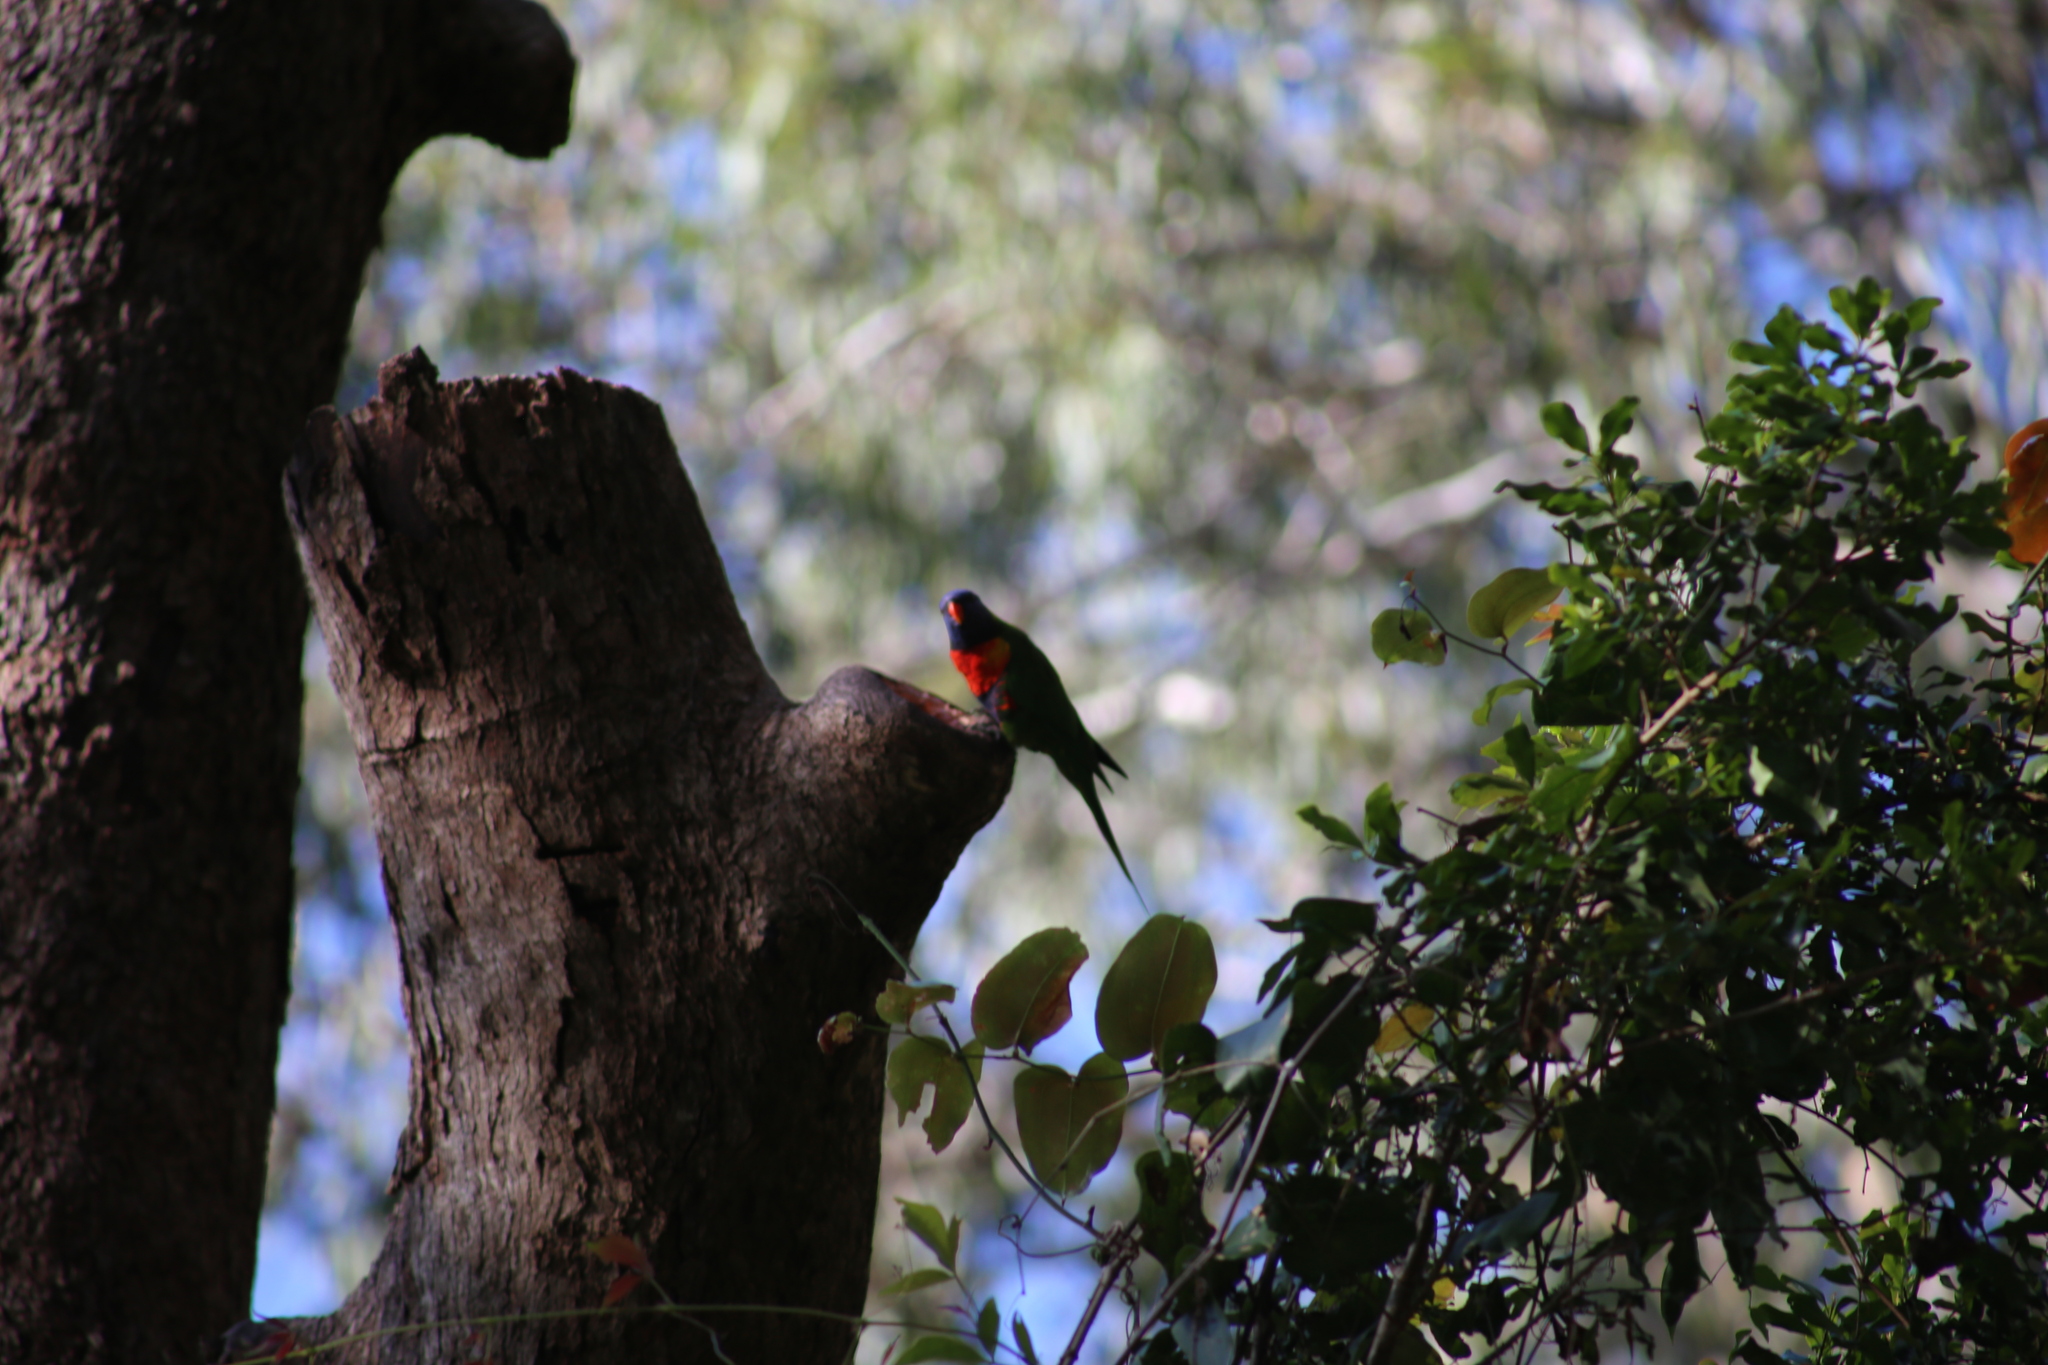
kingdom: Animalia
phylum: Chordata
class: Aves
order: Psittaciformes
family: Psittacidae
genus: Trichoglossus
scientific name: Trichoglossus haematodus
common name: Coconut lorikeet
